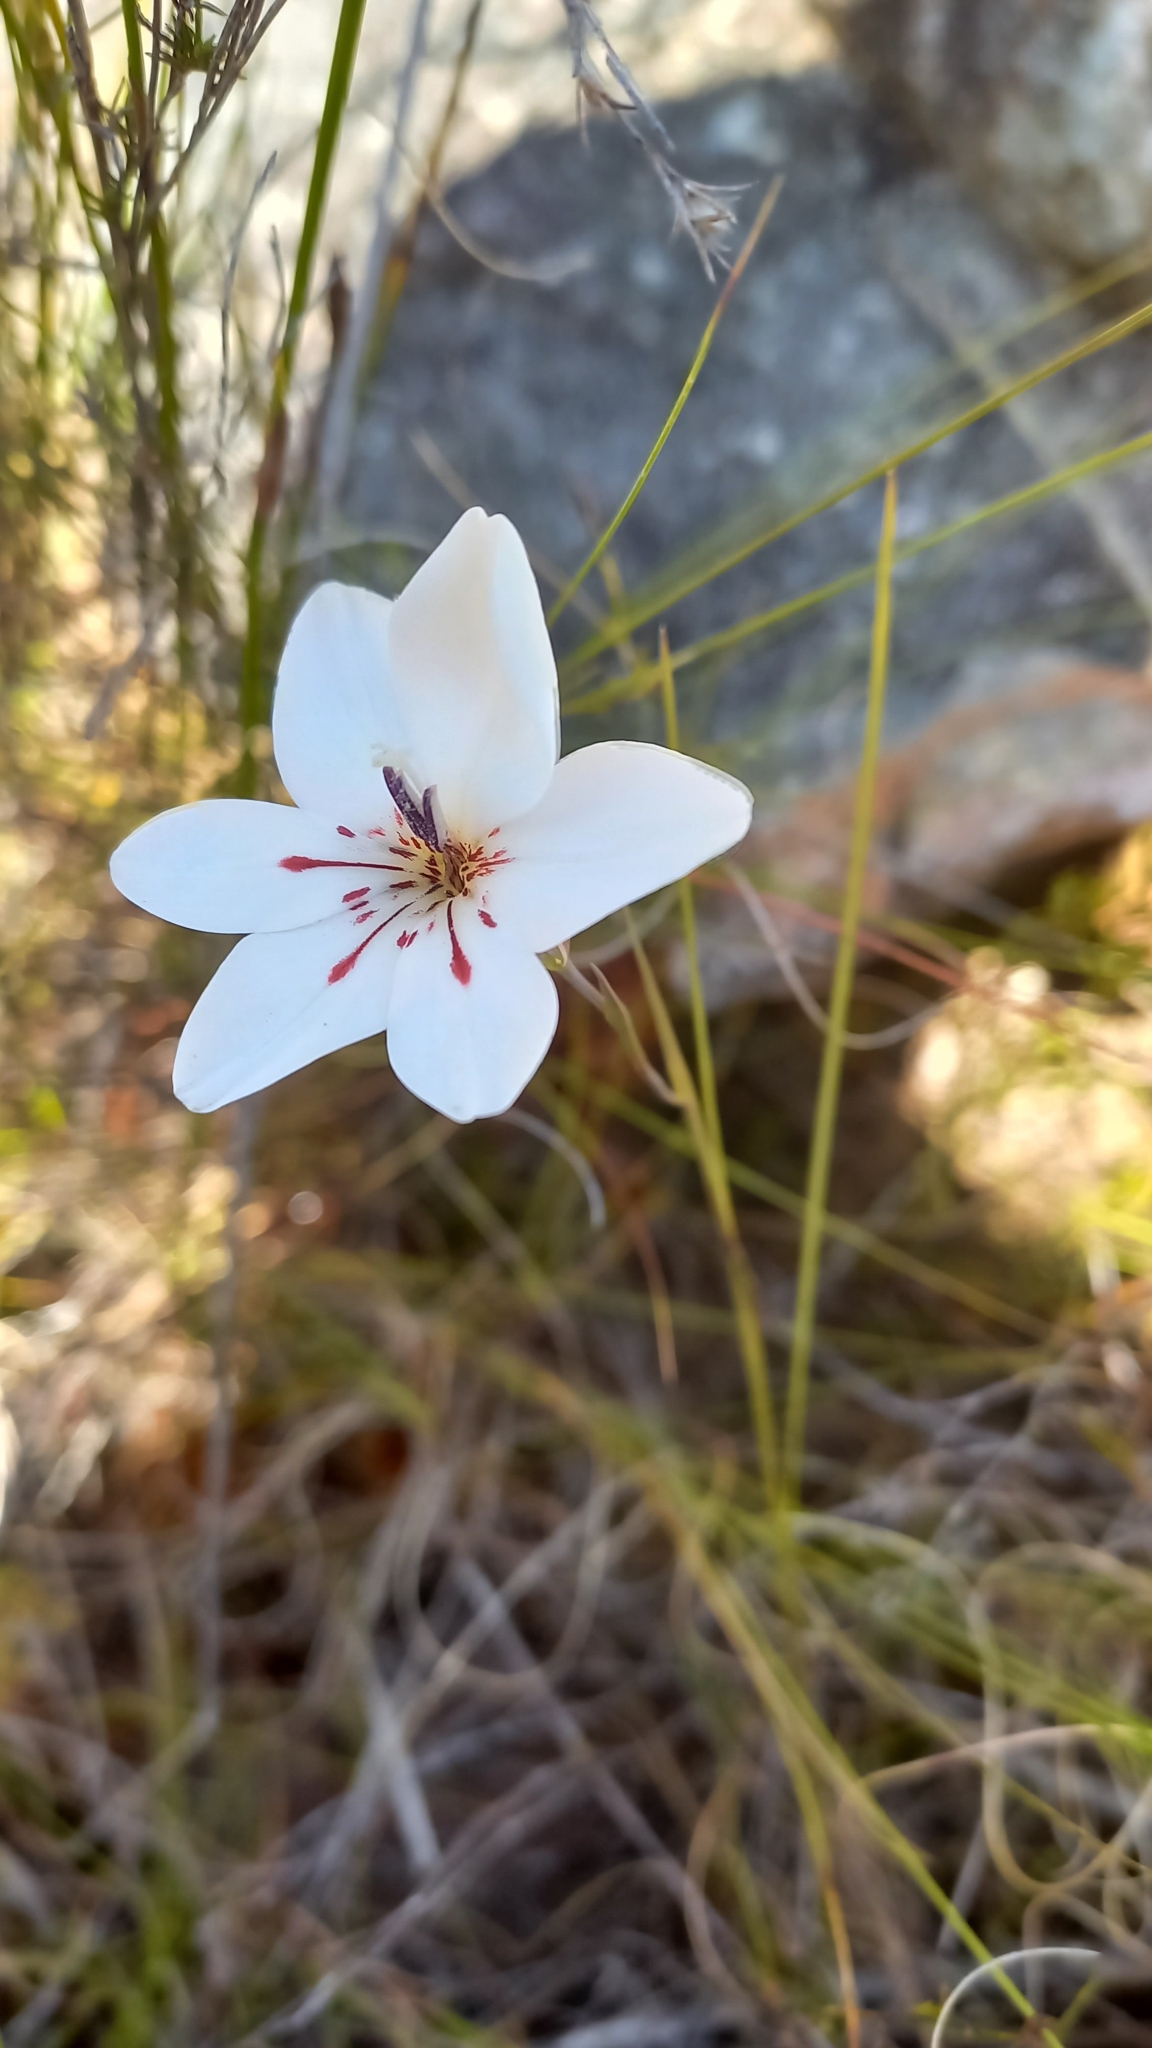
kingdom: Plantae
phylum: Tracheophyta
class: Liliopsida
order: Asparagales
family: Iridaceae
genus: Gladiolus
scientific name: Gladiolus debilis
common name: Painted-lady
